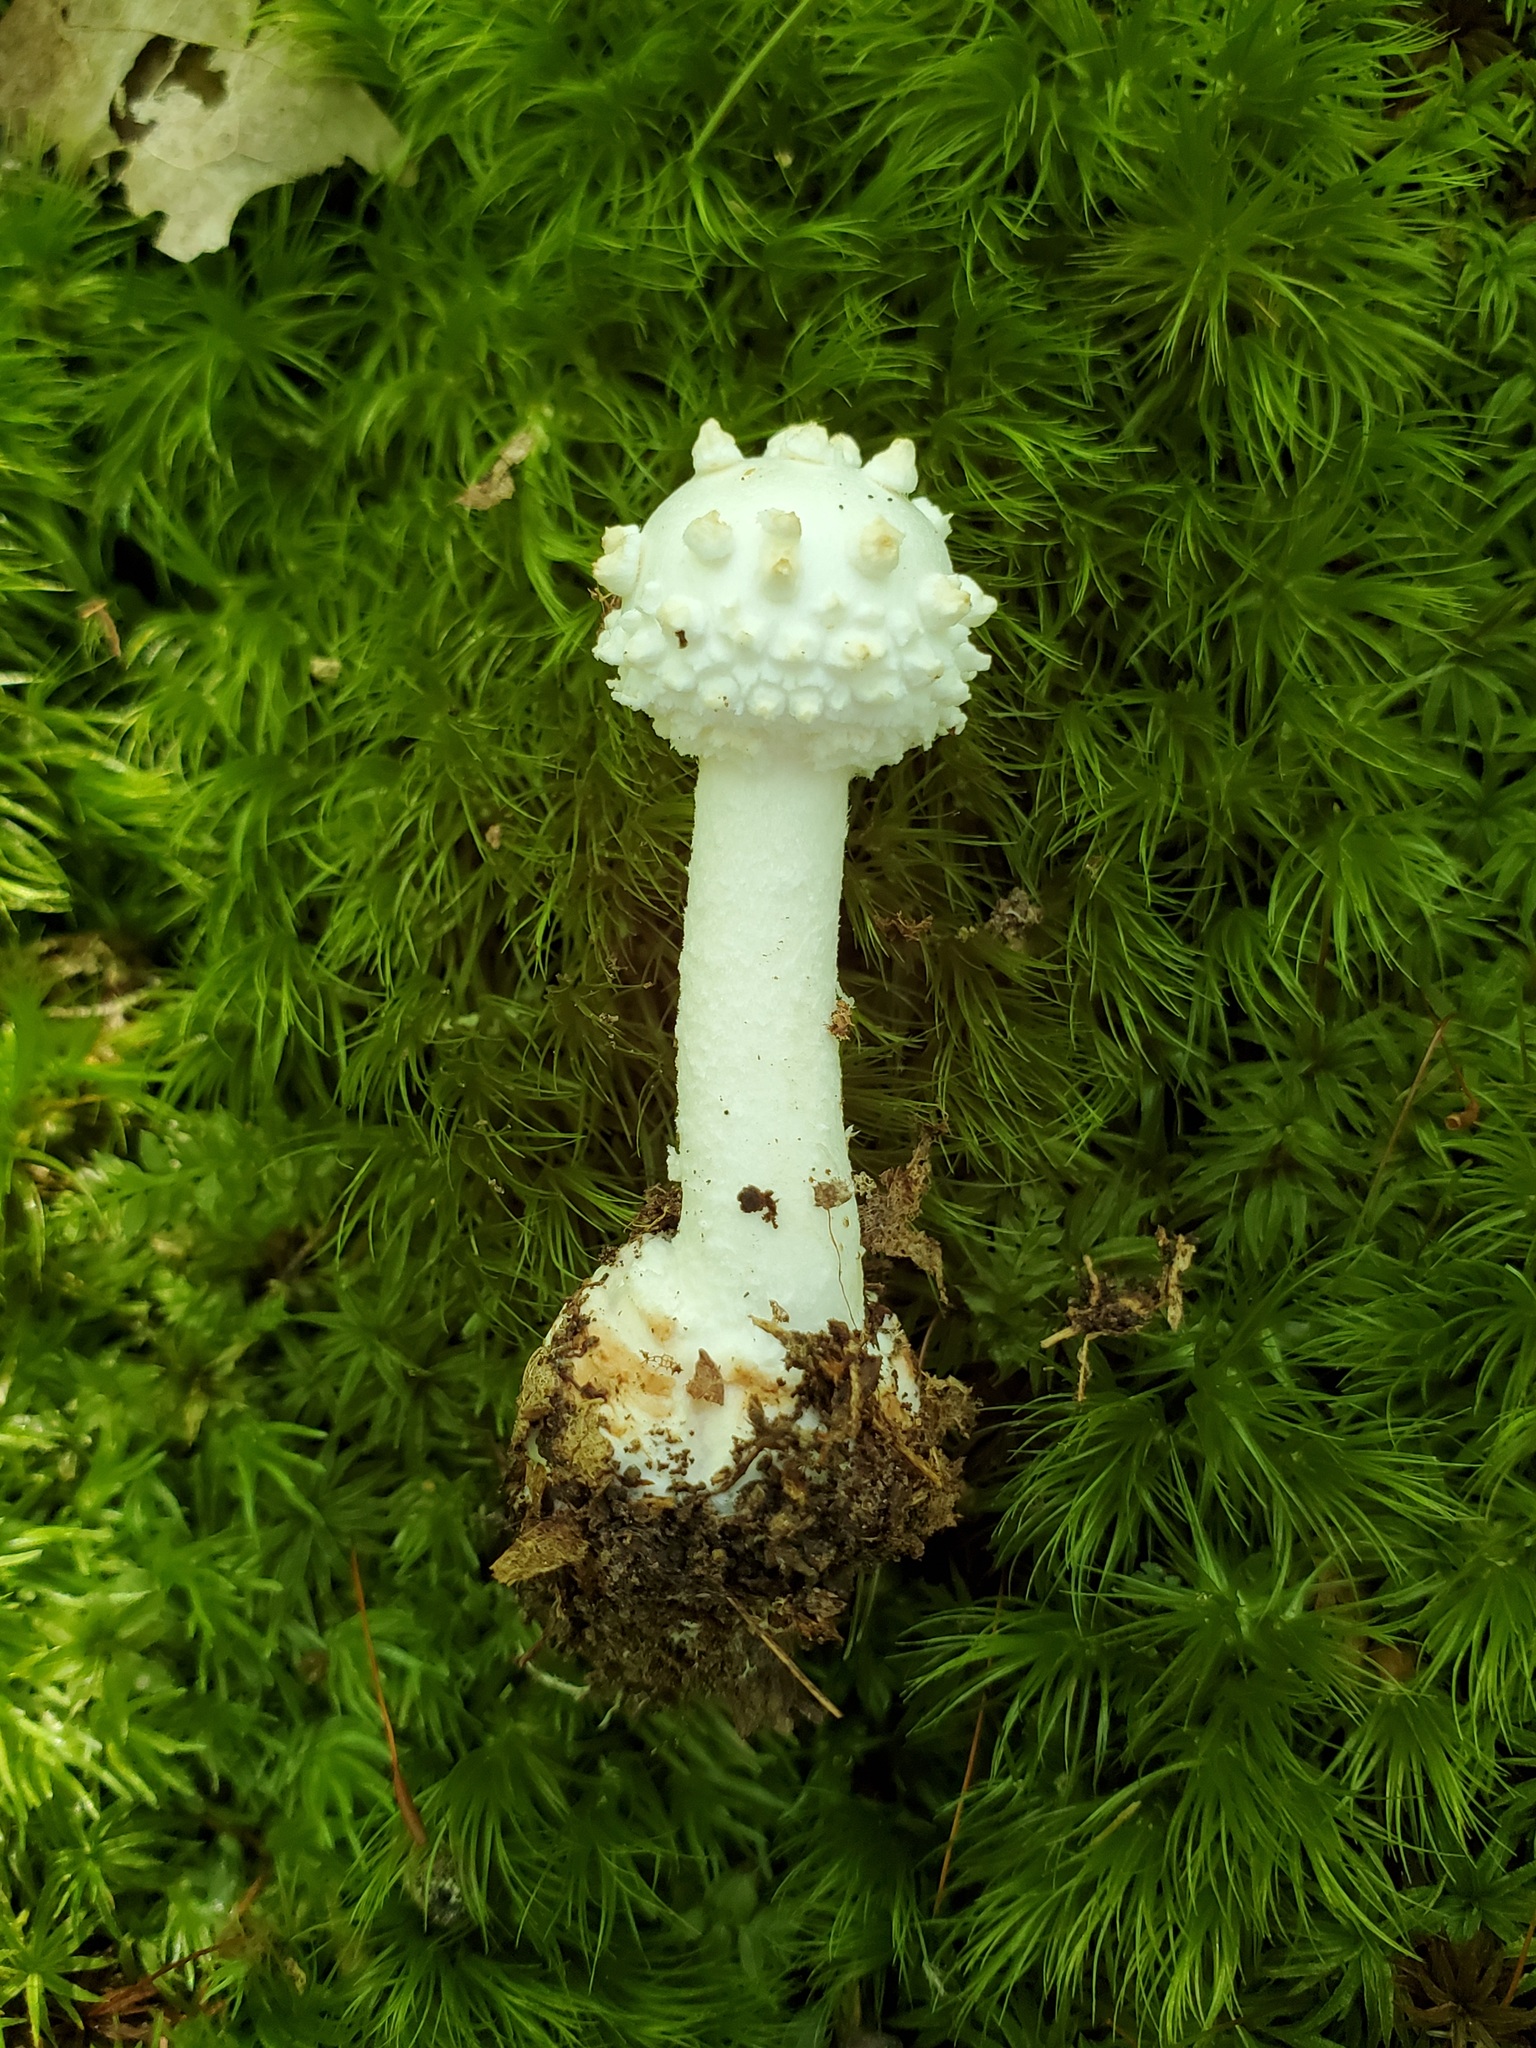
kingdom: Fungi
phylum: Basidiomycota
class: Agaricomycetes
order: Agaricales
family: Amanitaceae
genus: Amanita
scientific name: Amanita abrupta
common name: American abrupt-bulbed lepidella
